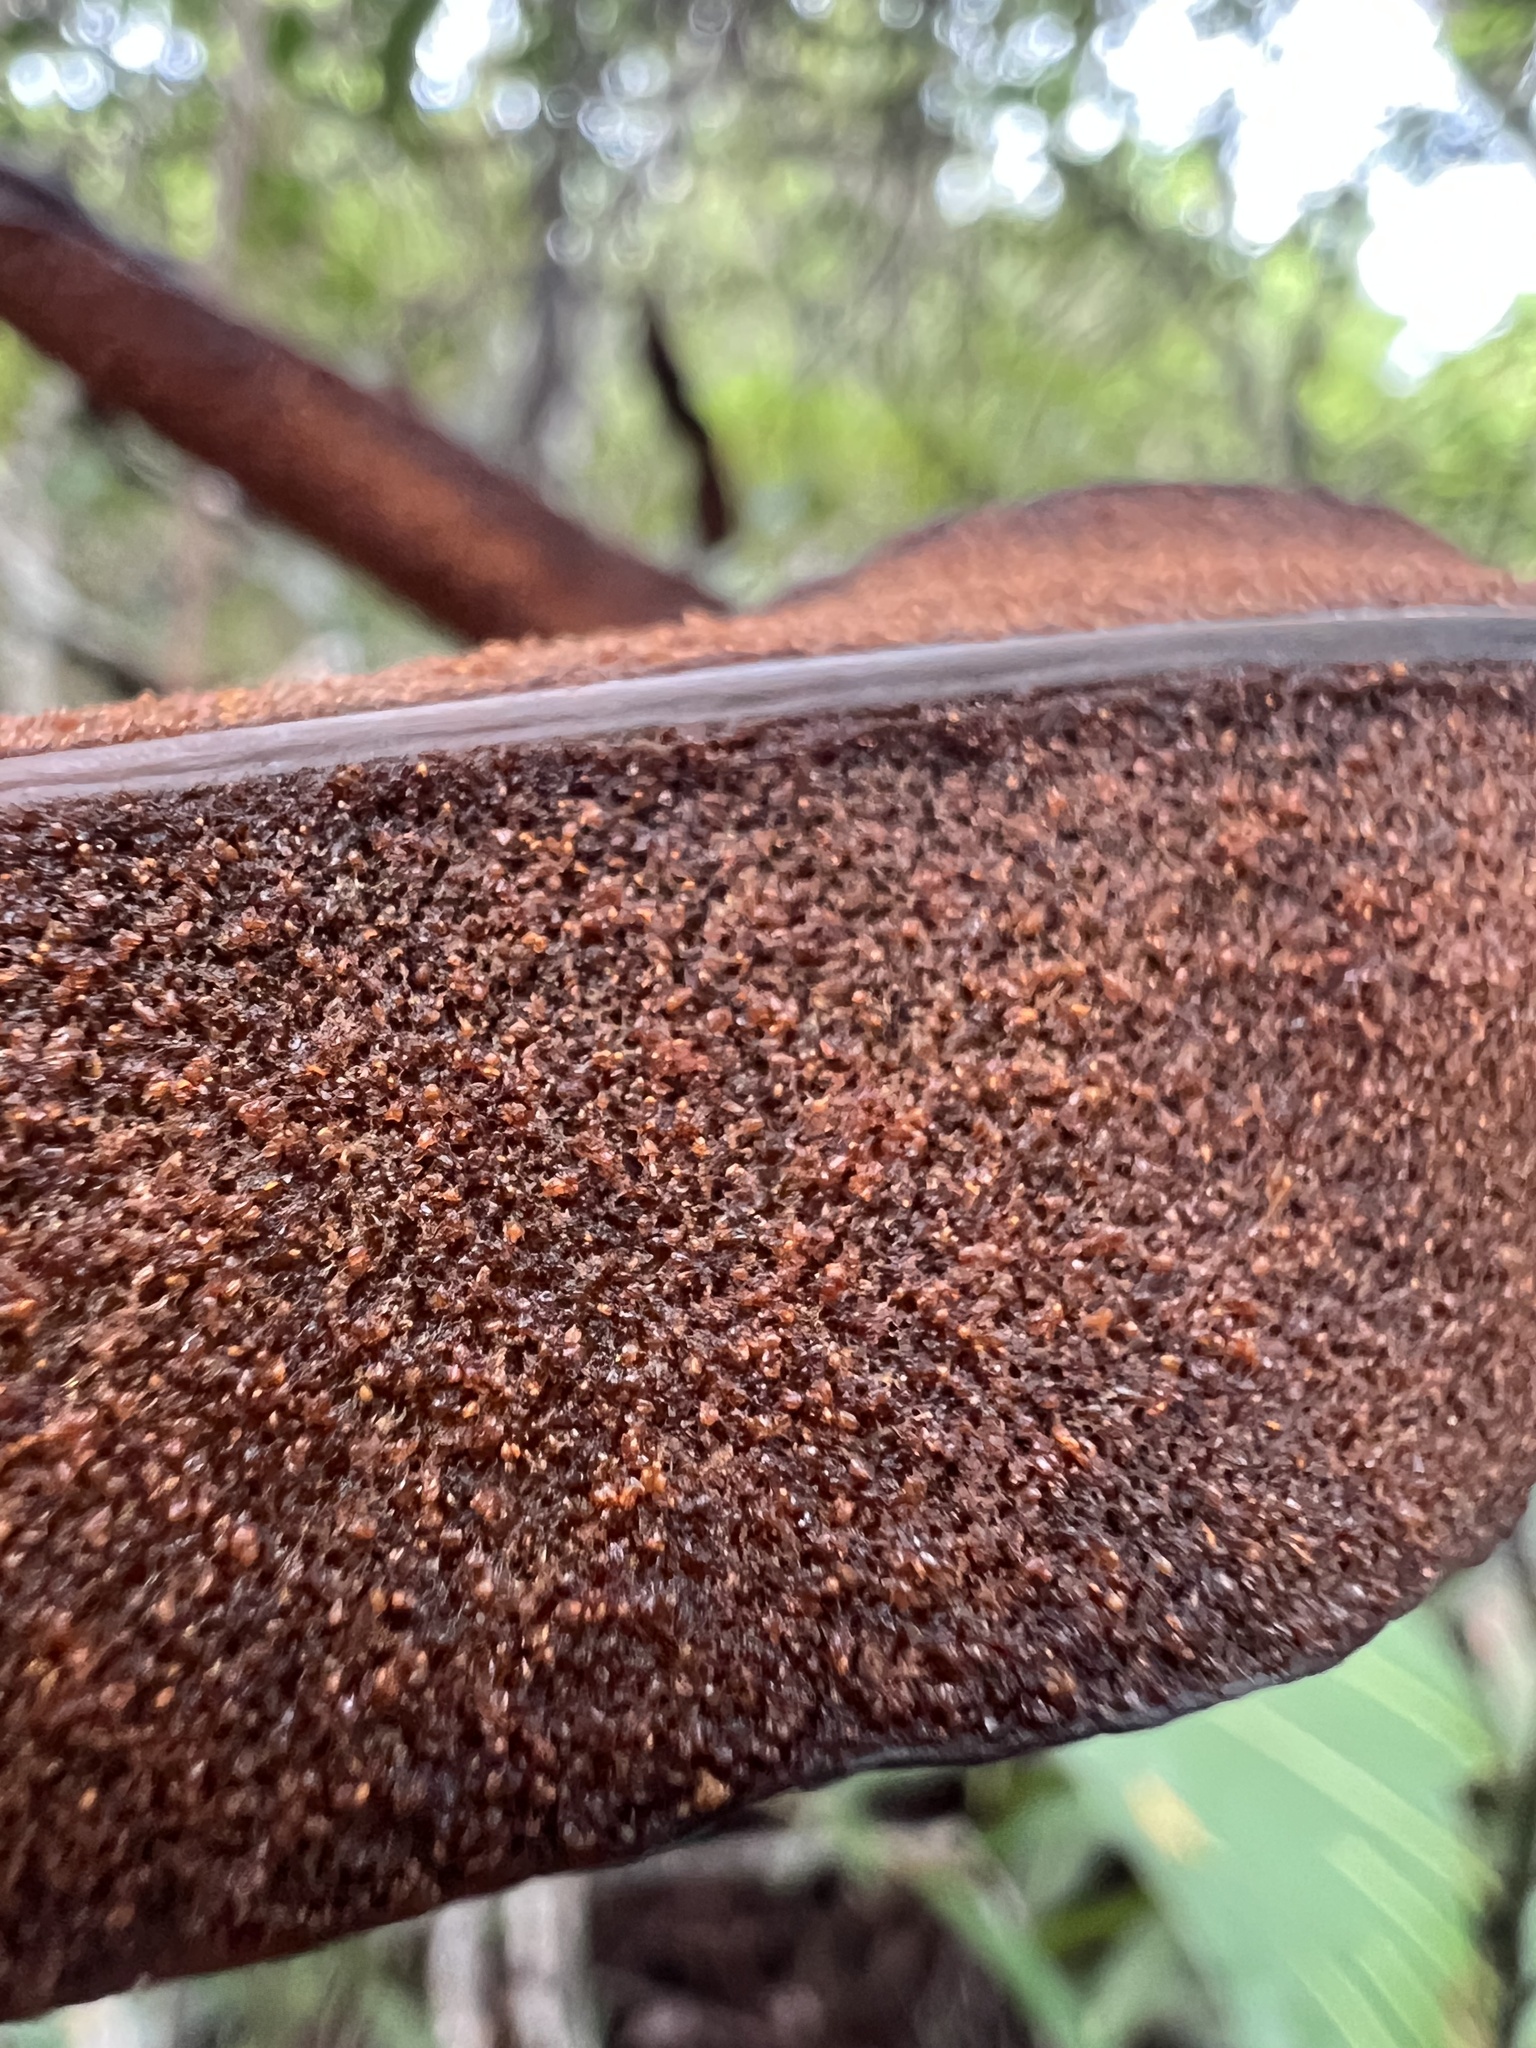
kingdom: Plantae
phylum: Tracheophyta
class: Polypodiopsida
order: Polypodiales
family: Pteridaceae
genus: Acrostichum
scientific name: Acrostichum aureum
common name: Leather fern
